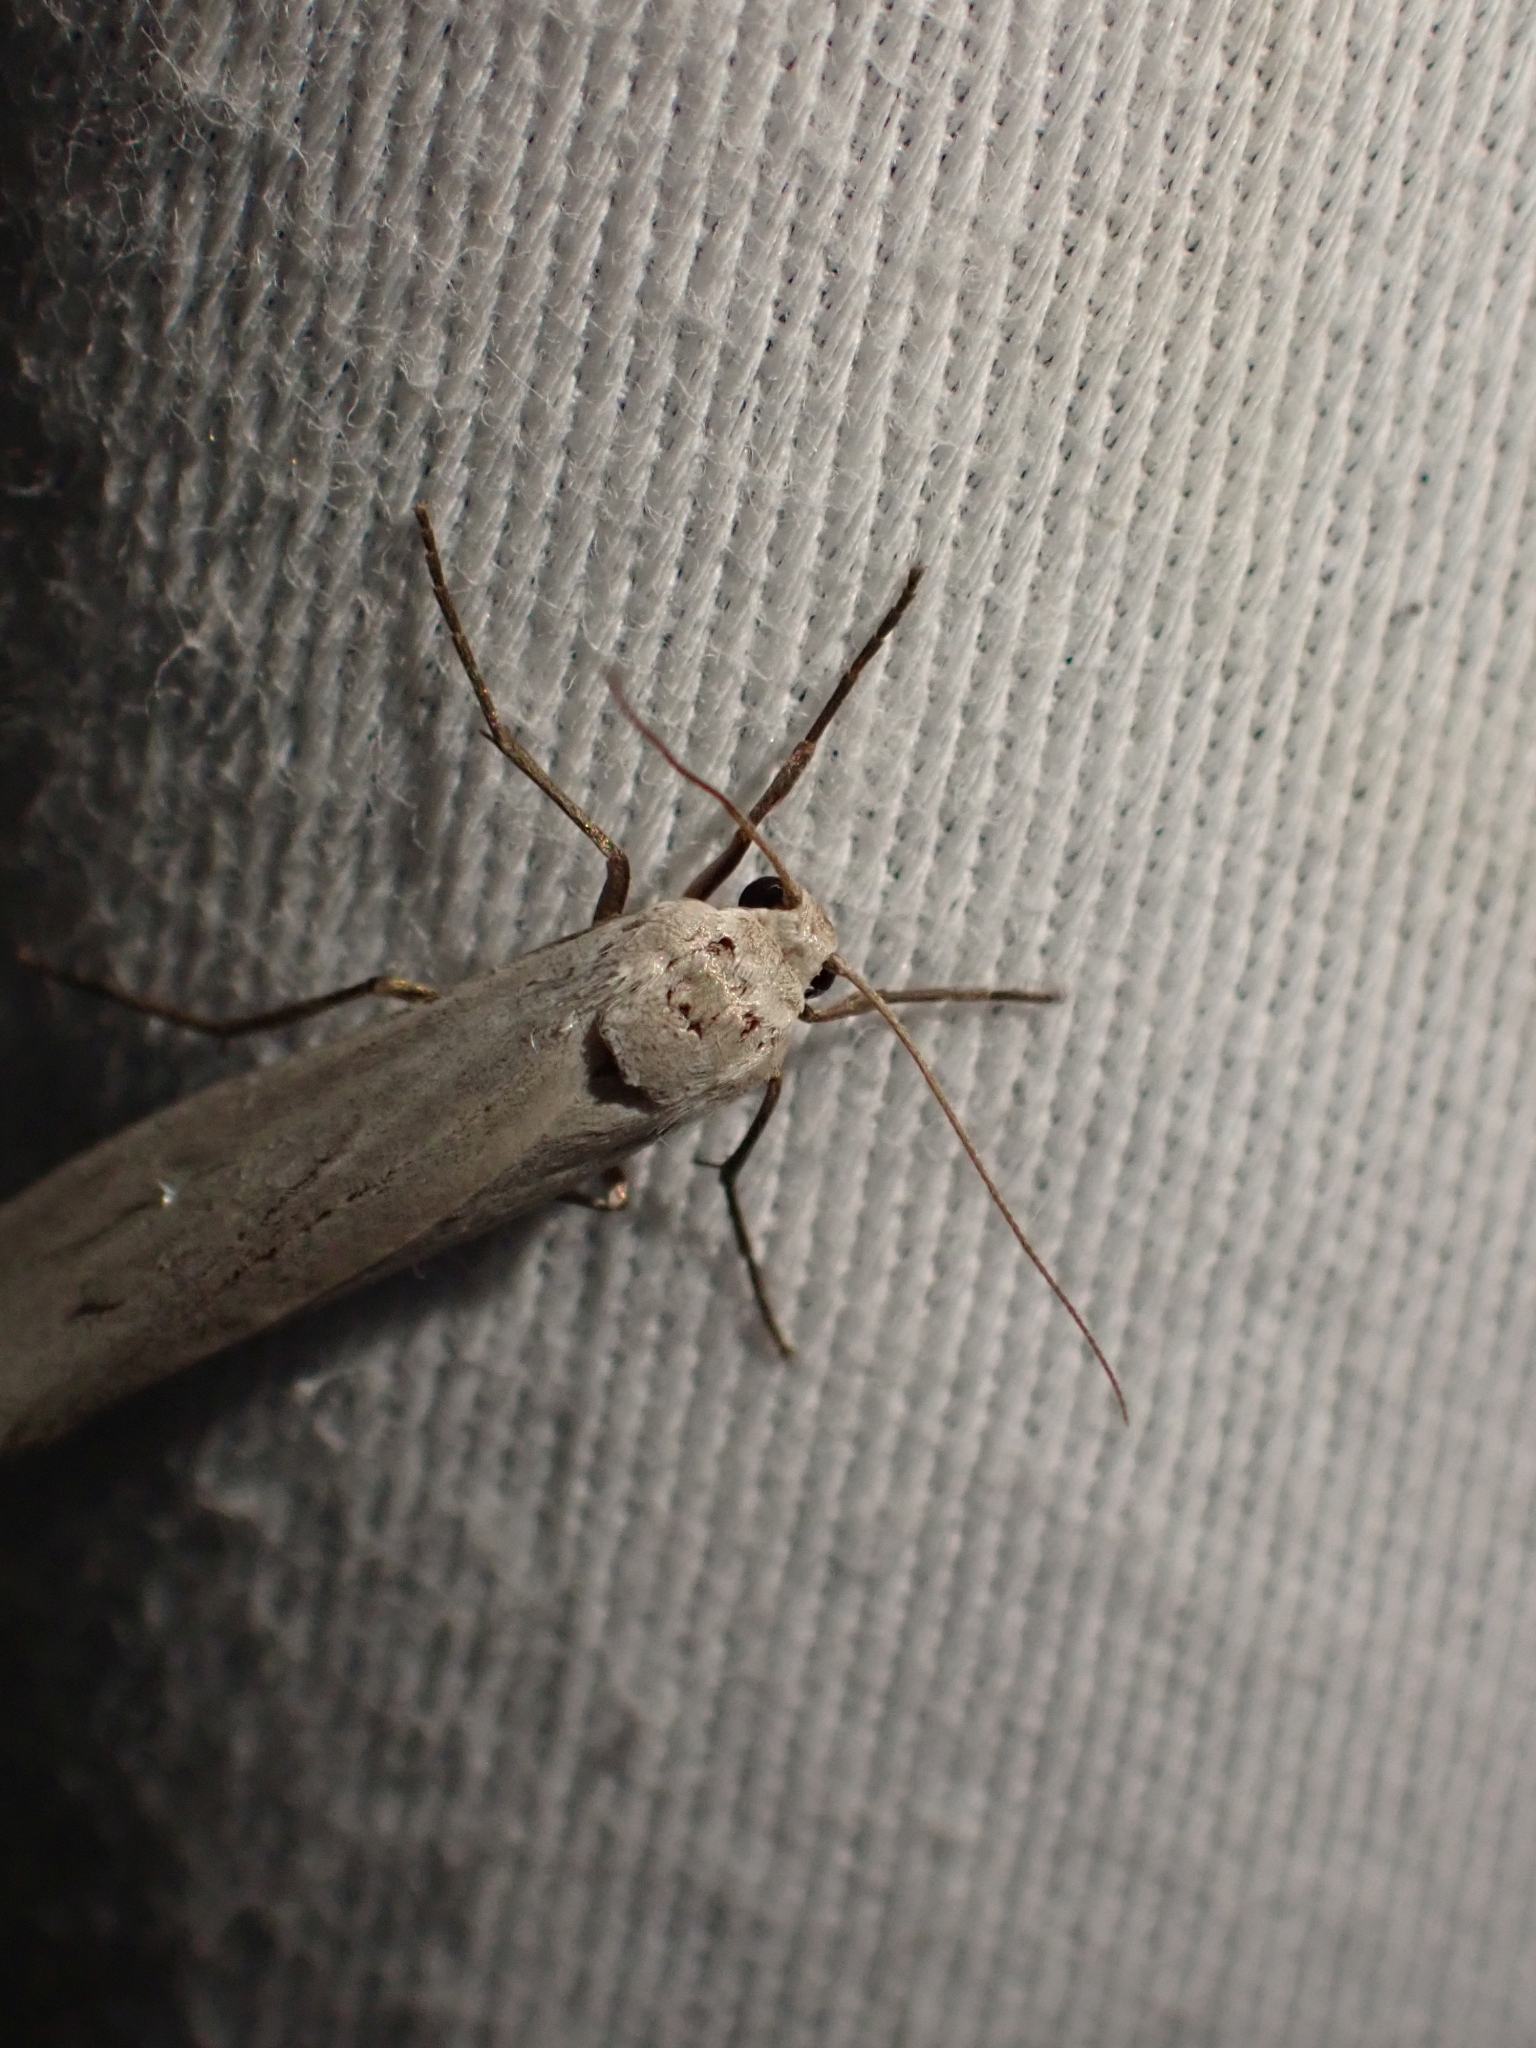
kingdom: Animalia
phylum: Arthropoda
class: Insecta
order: Lepidoptera
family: Erebidae
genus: Crambidia
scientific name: Crambidia casta
